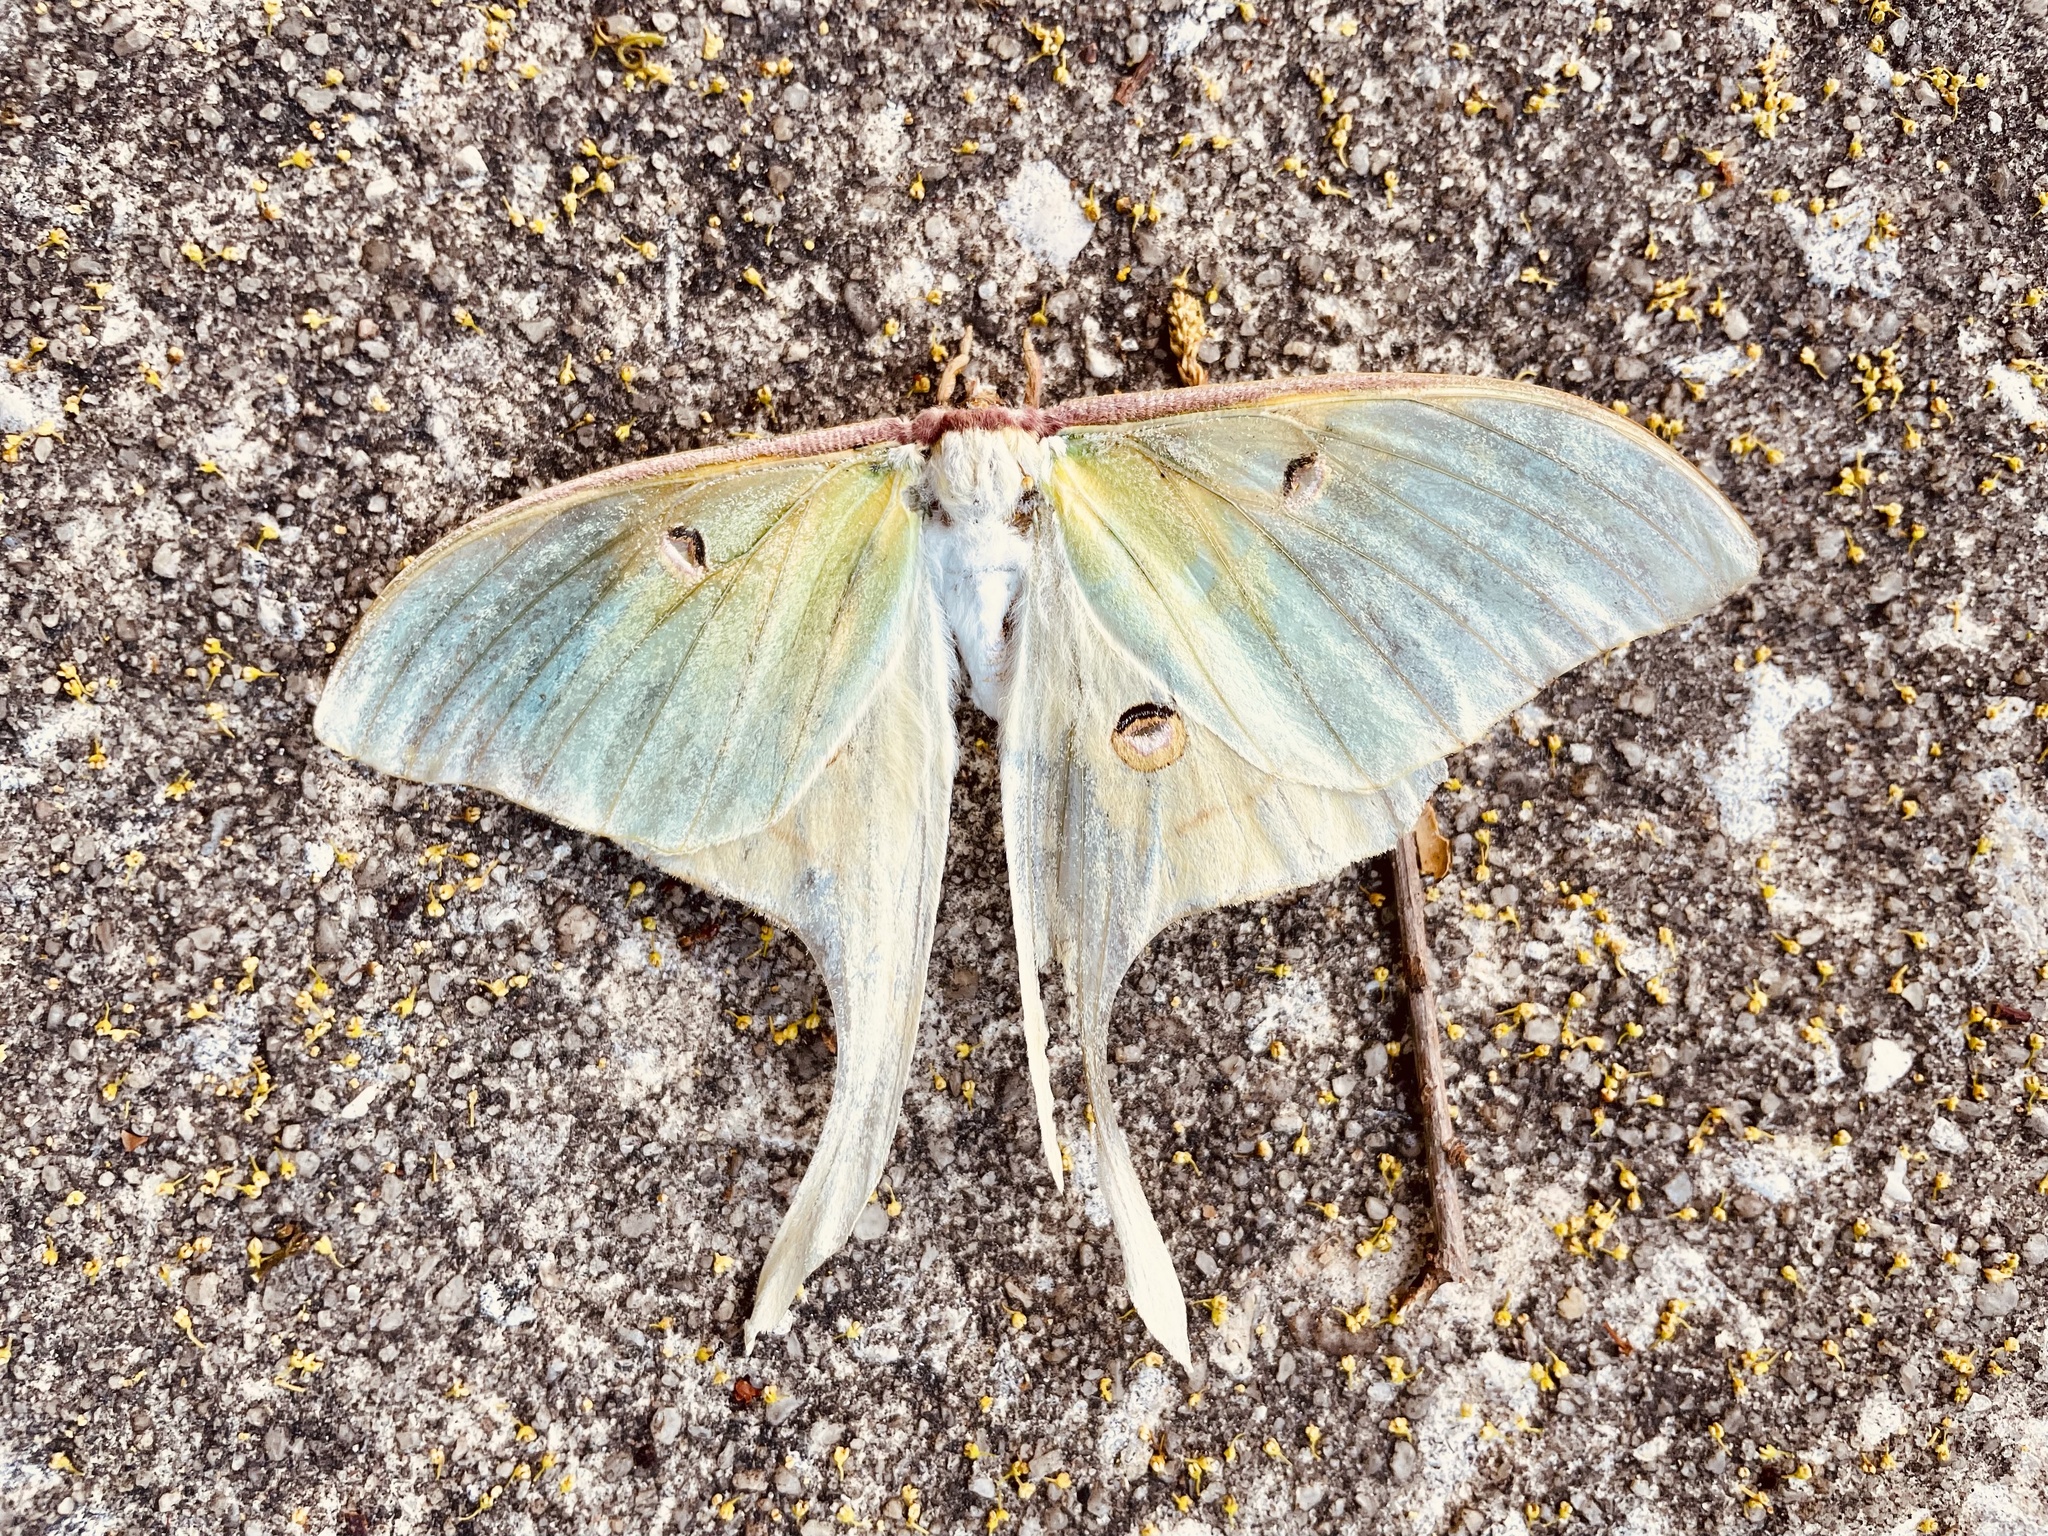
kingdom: Animalia
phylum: Arthropoda
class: Insecta
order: Lepidoptera
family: Saturniidae
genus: Actias
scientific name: Actias luna
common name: Luna moth
